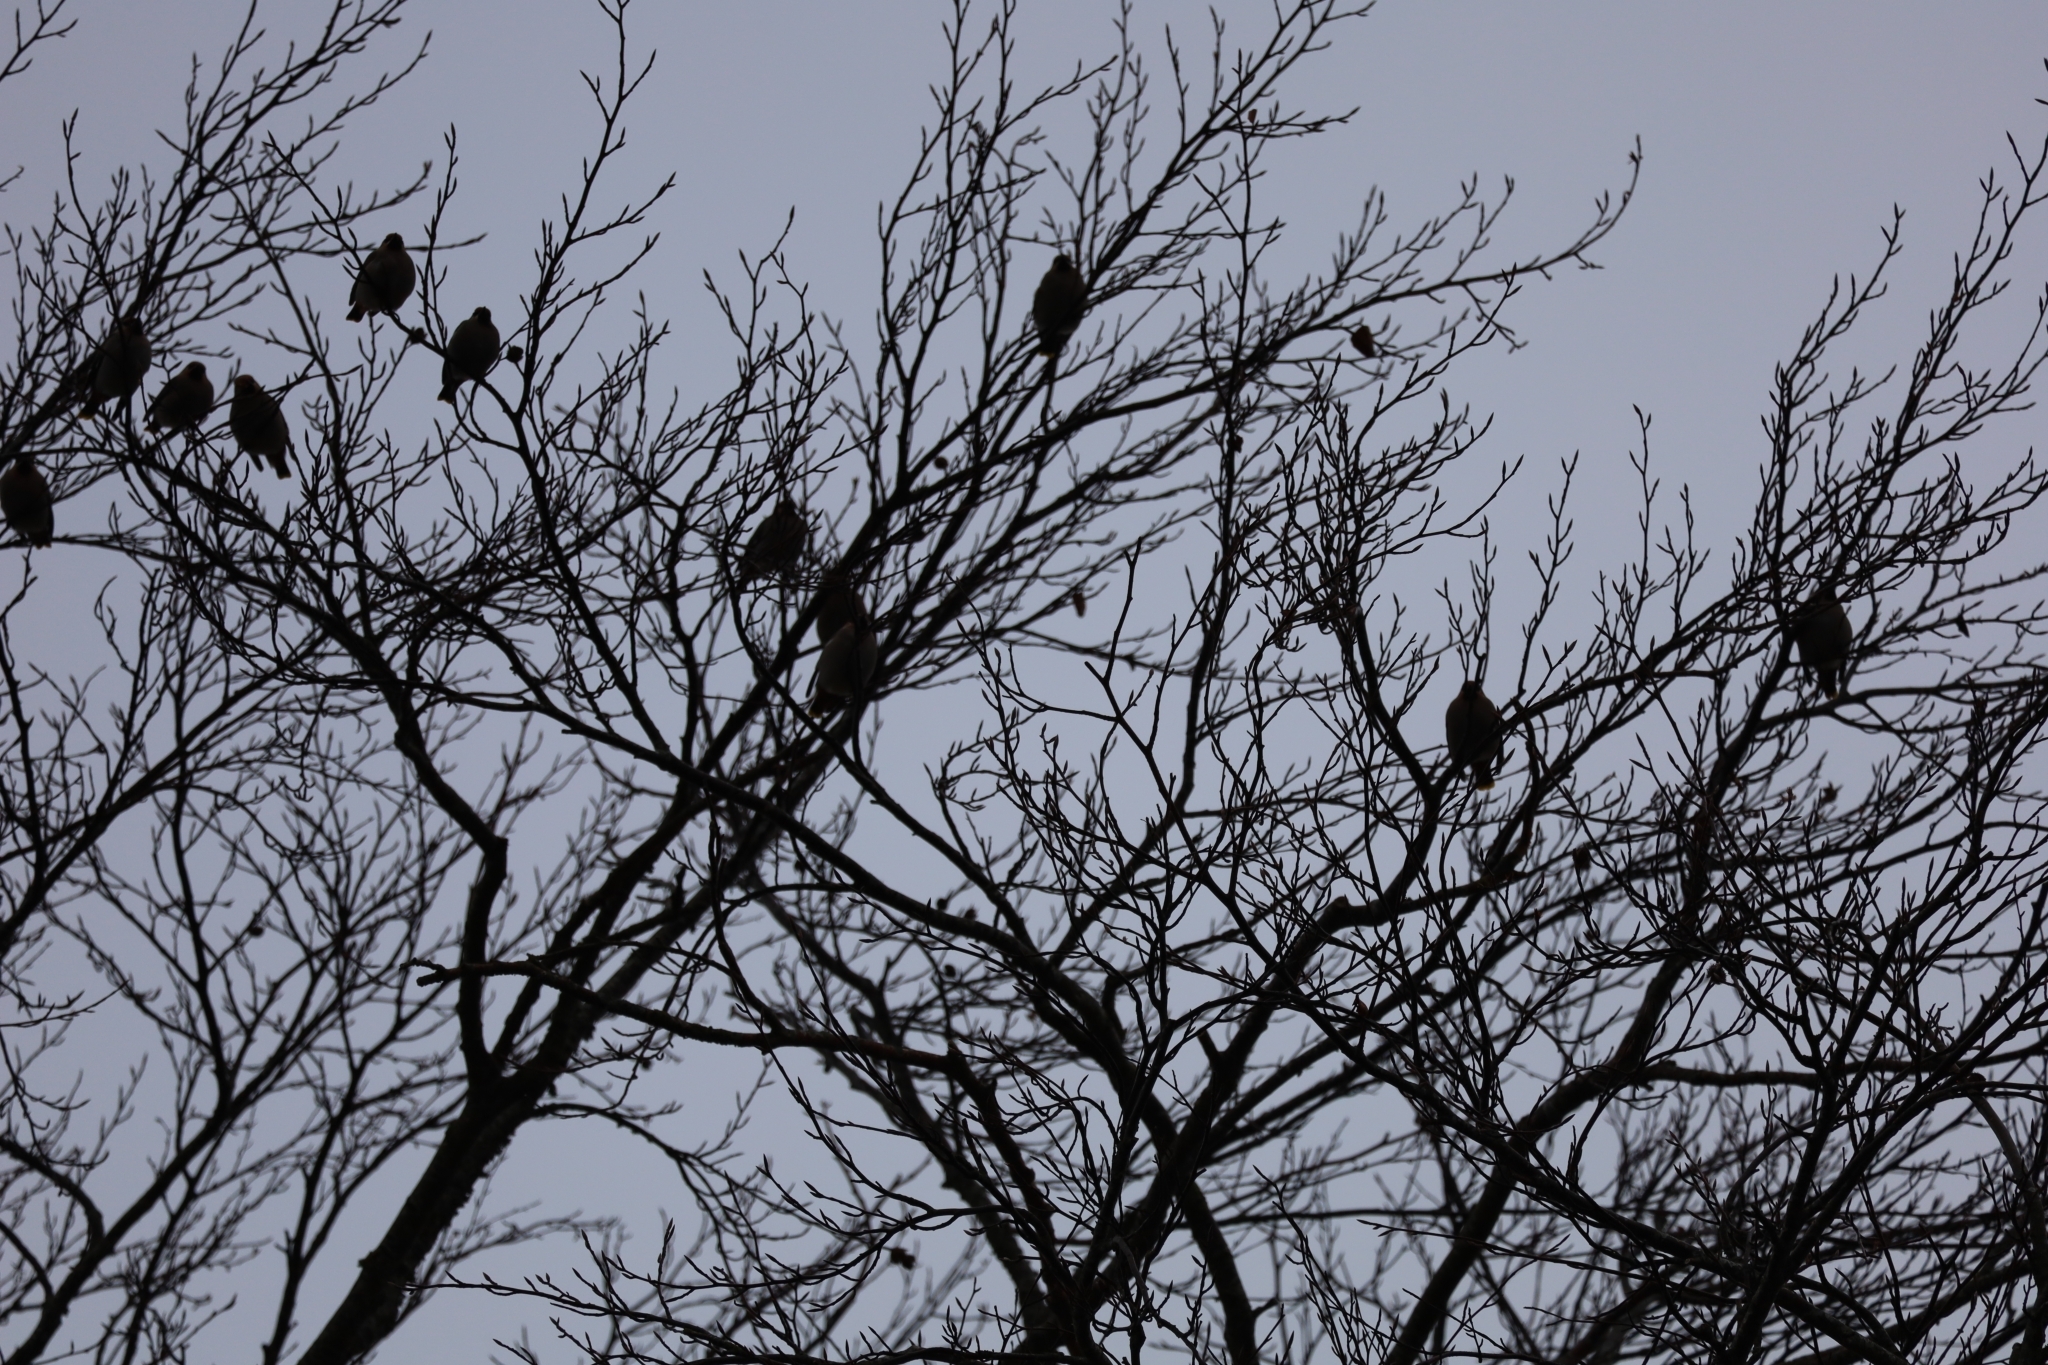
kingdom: Animalia
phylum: Chordata
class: Aves
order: Passeriformes
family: Bombycillidae
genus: Bombycilla
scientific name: Bombycilla garrulus
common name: Bohemian waxwing
